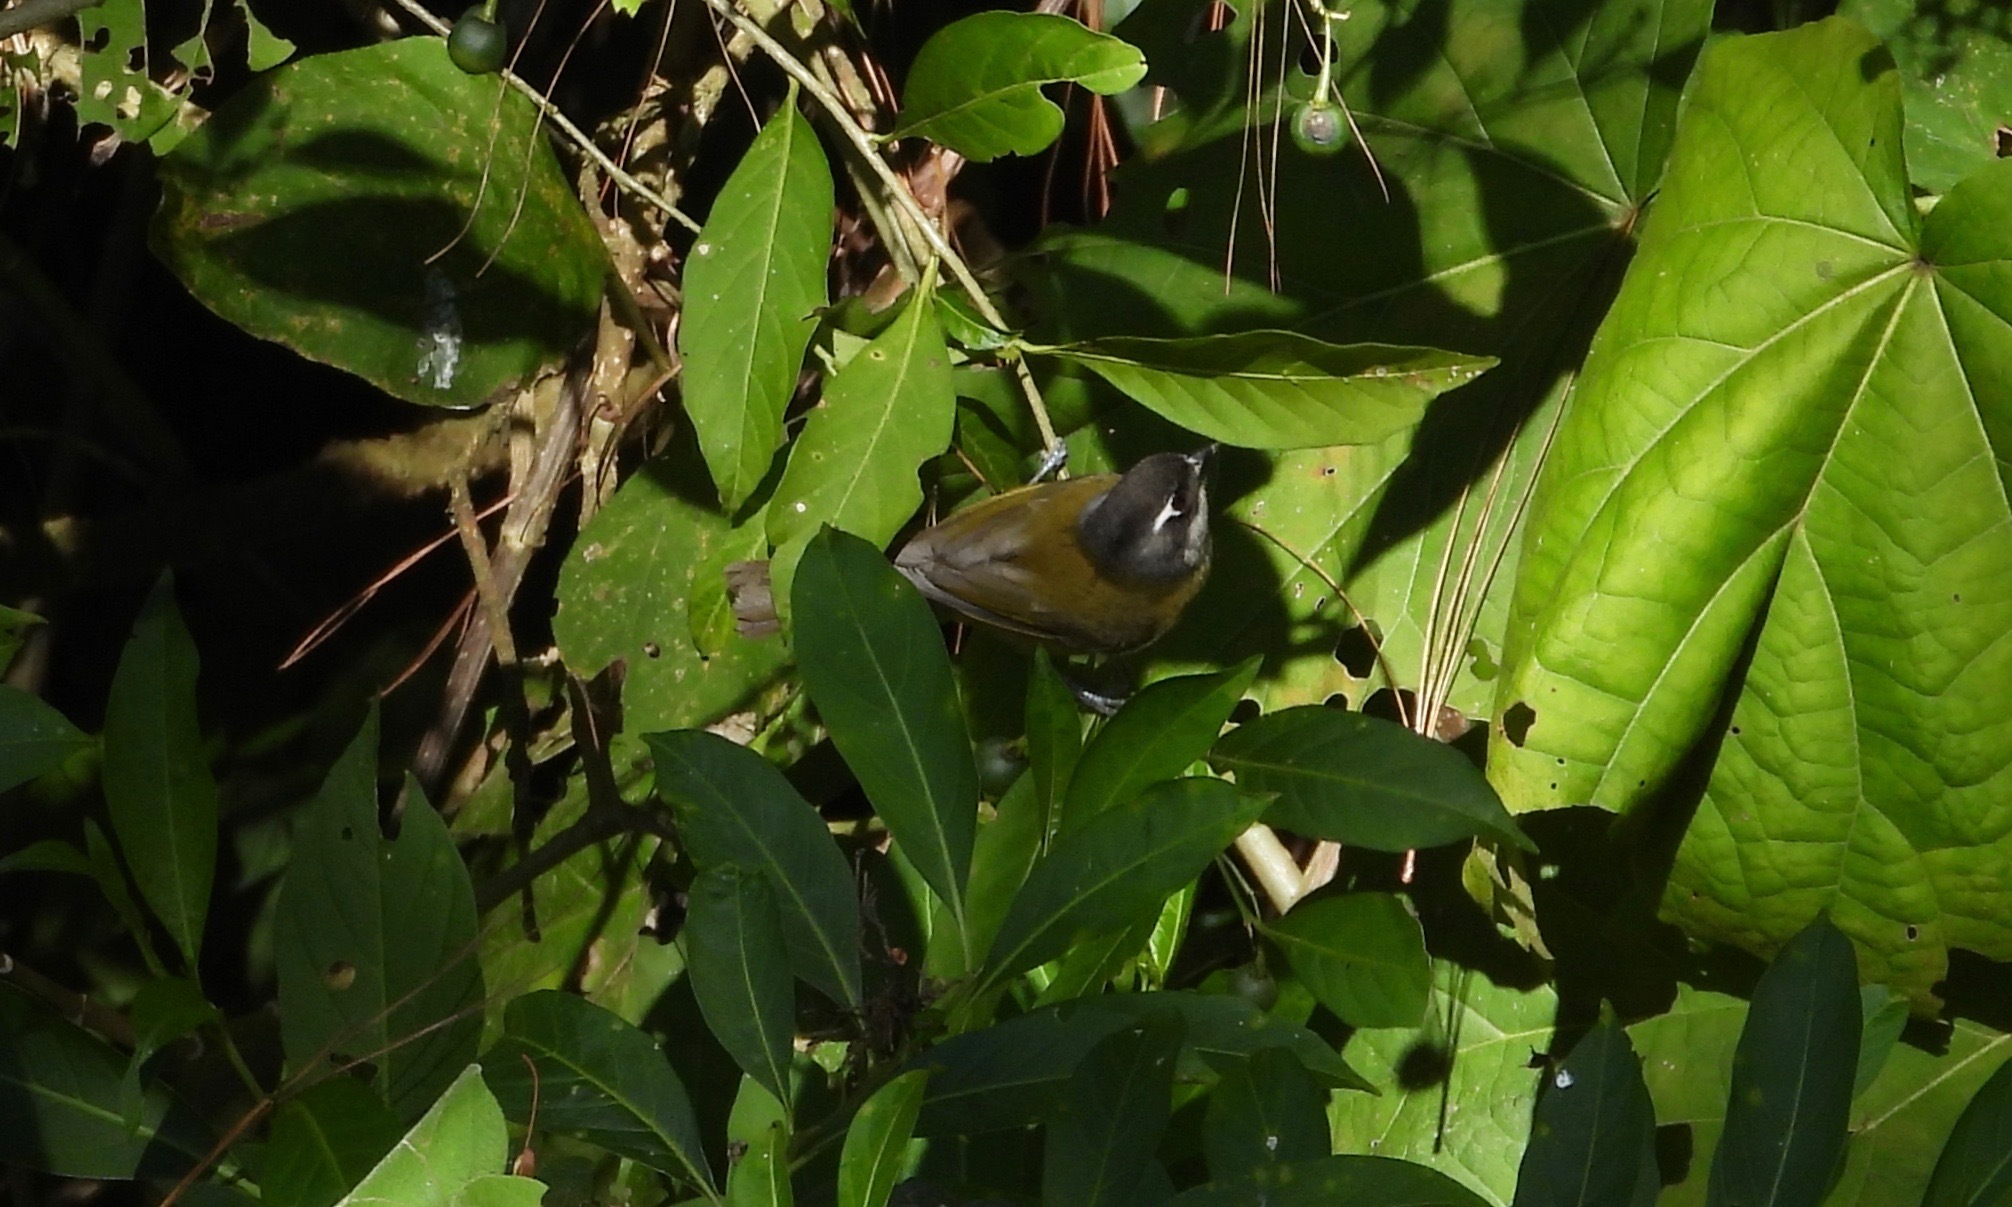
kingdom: Animalia
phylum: Chordata
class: Aves
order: Passeriformes
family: Passerellidae
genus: Chlorospingus
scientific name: Chlorospingus flavopectus
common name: Common chlorospingus
